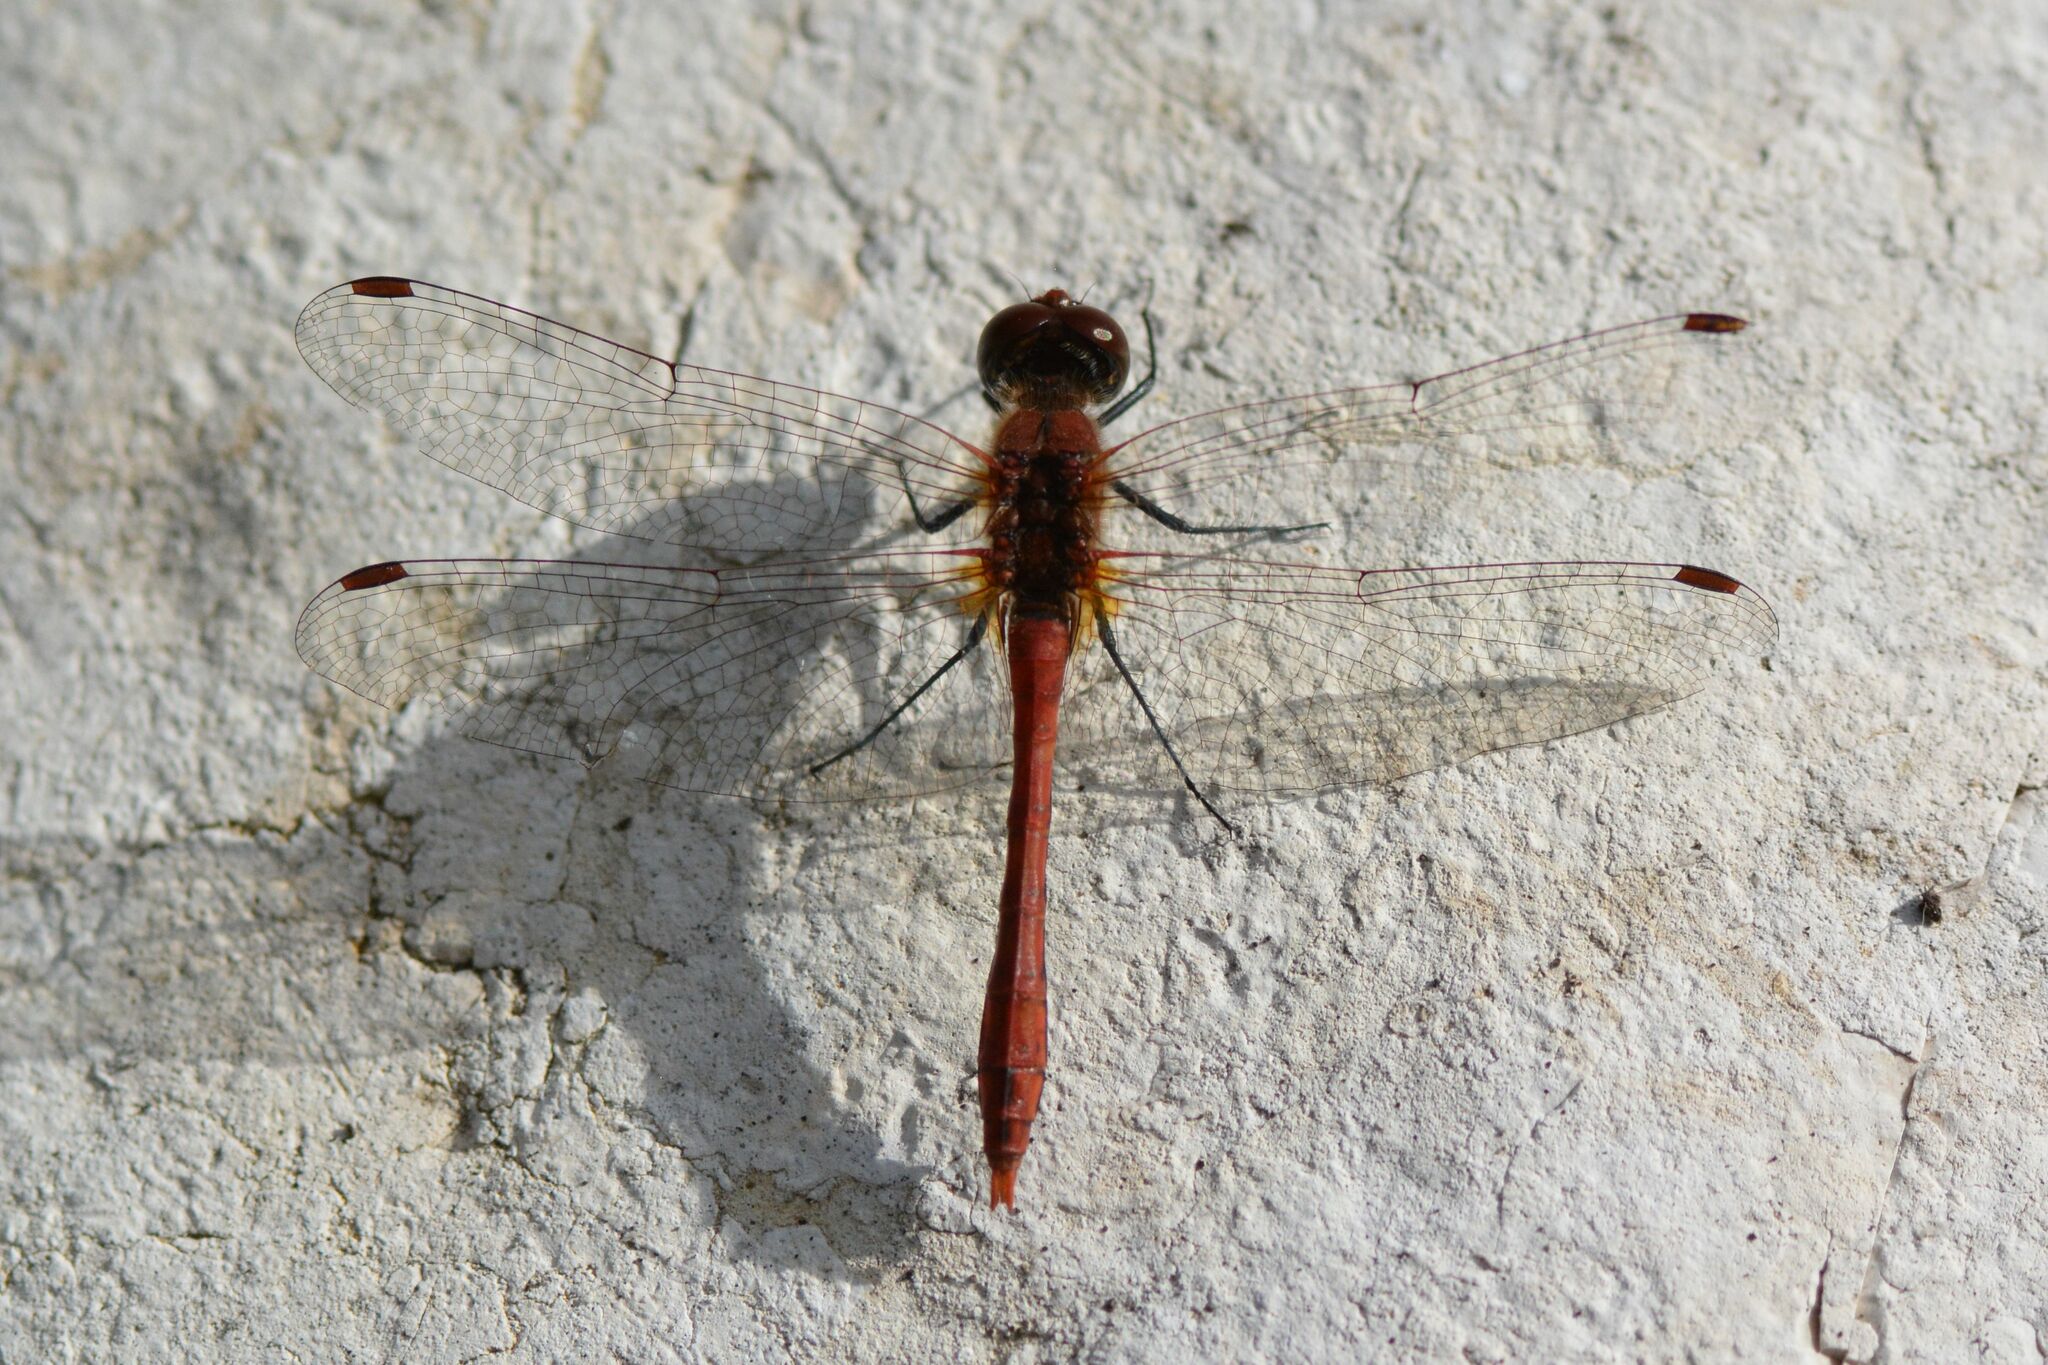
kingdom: Animalia
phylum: Arthropoda
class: Insecta
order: Odonata
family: Libellulidae
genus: Sympetrum
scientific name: Sympetrum sanguineum
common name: Ruddy darter
